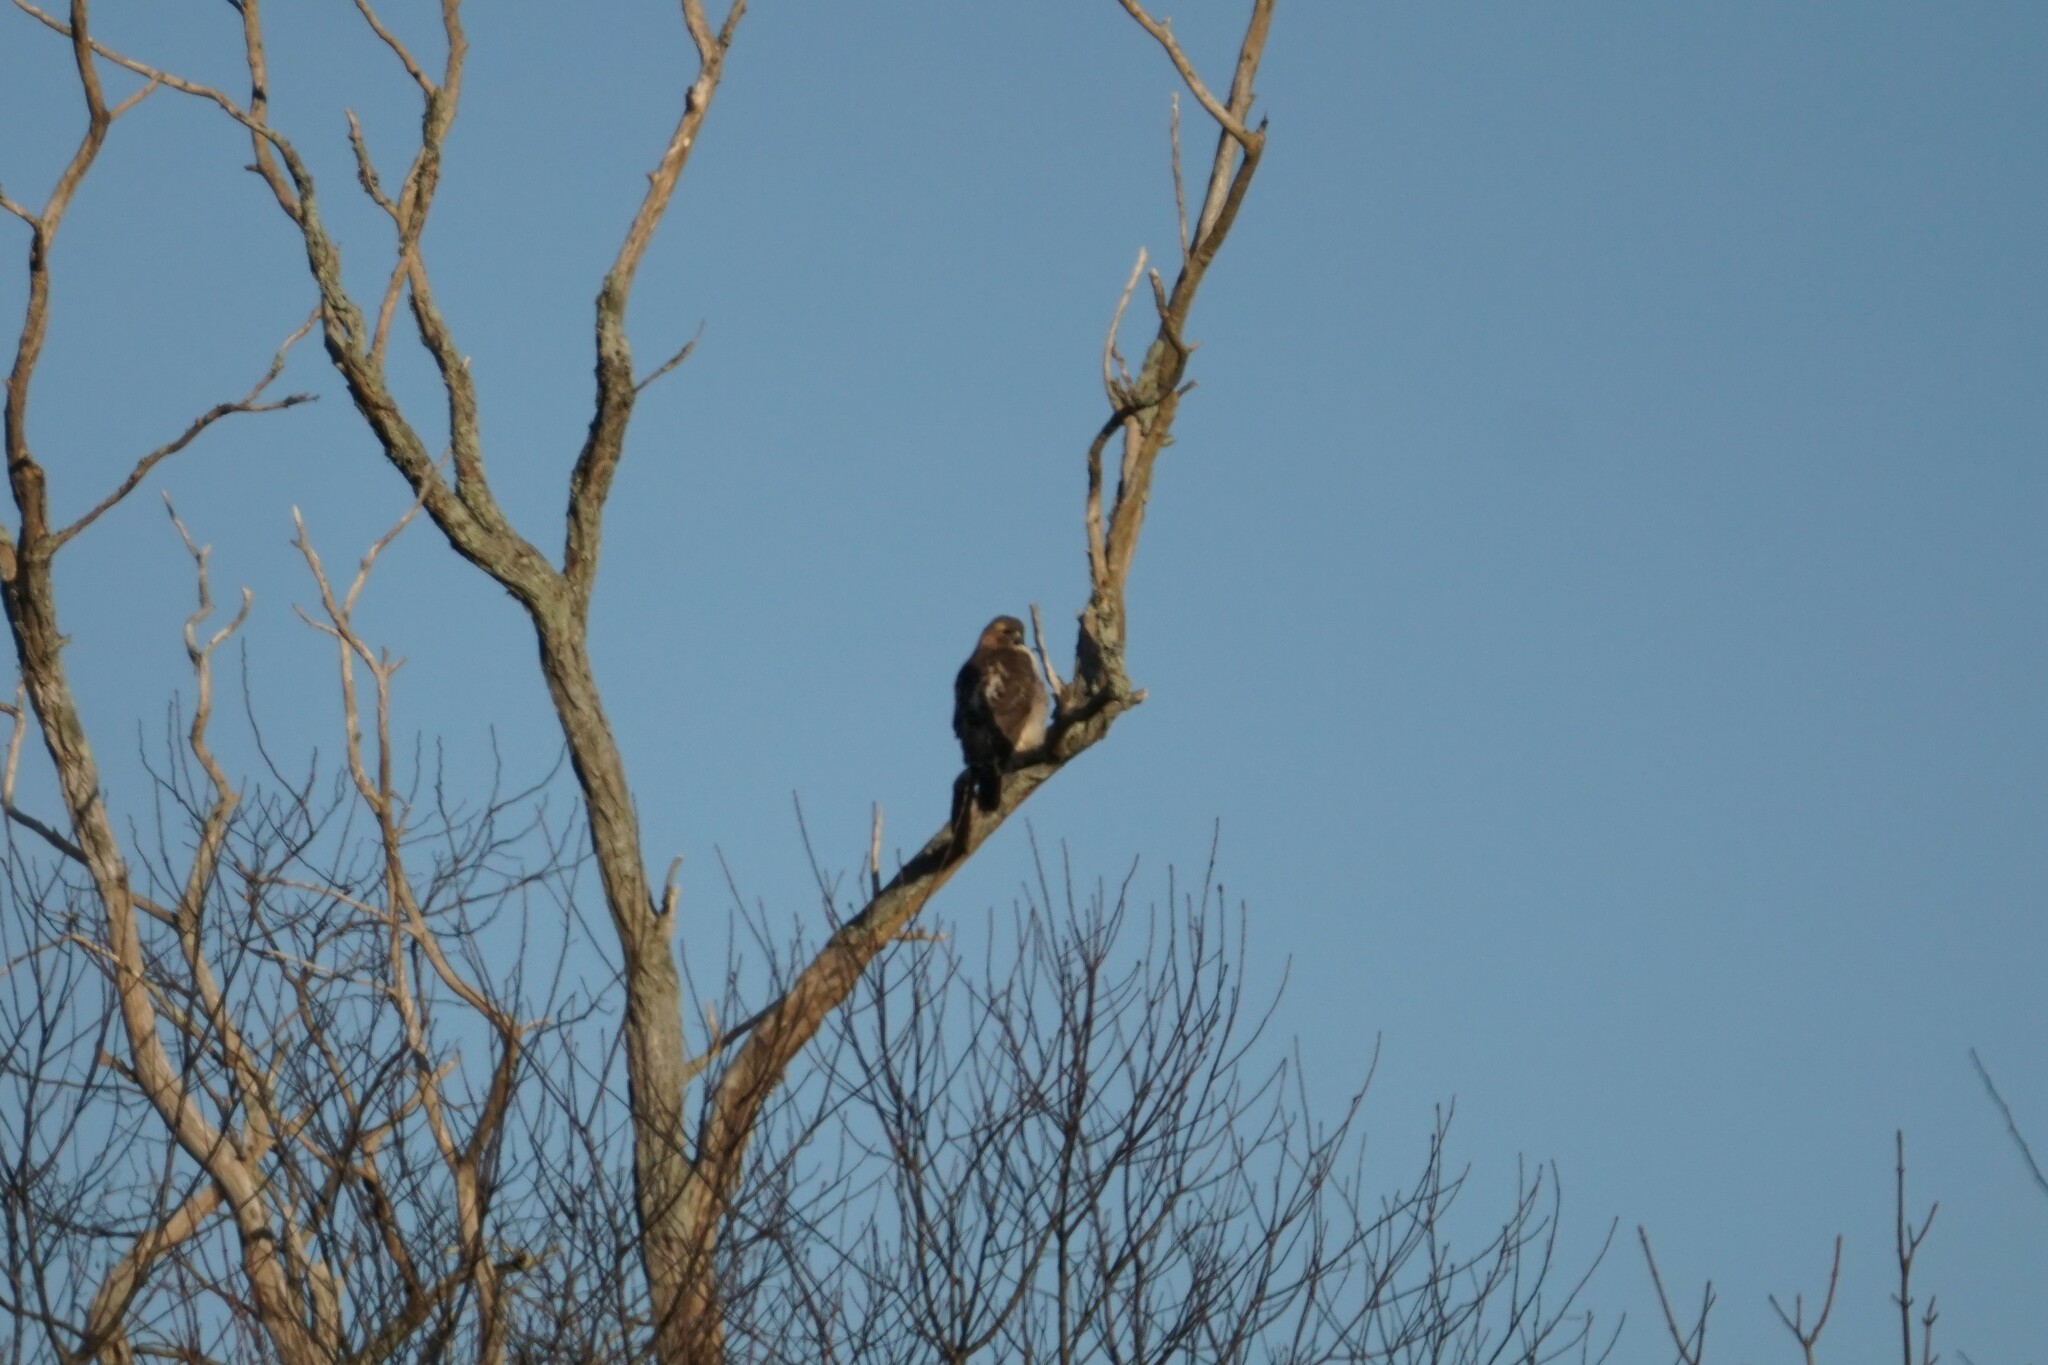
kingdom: Animalia
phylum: Chordata
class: Aves
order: Accipitriformes
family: Accipitridae
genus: Buteo
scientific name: Buteo jamaicensis
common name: Red-tailed hawk
